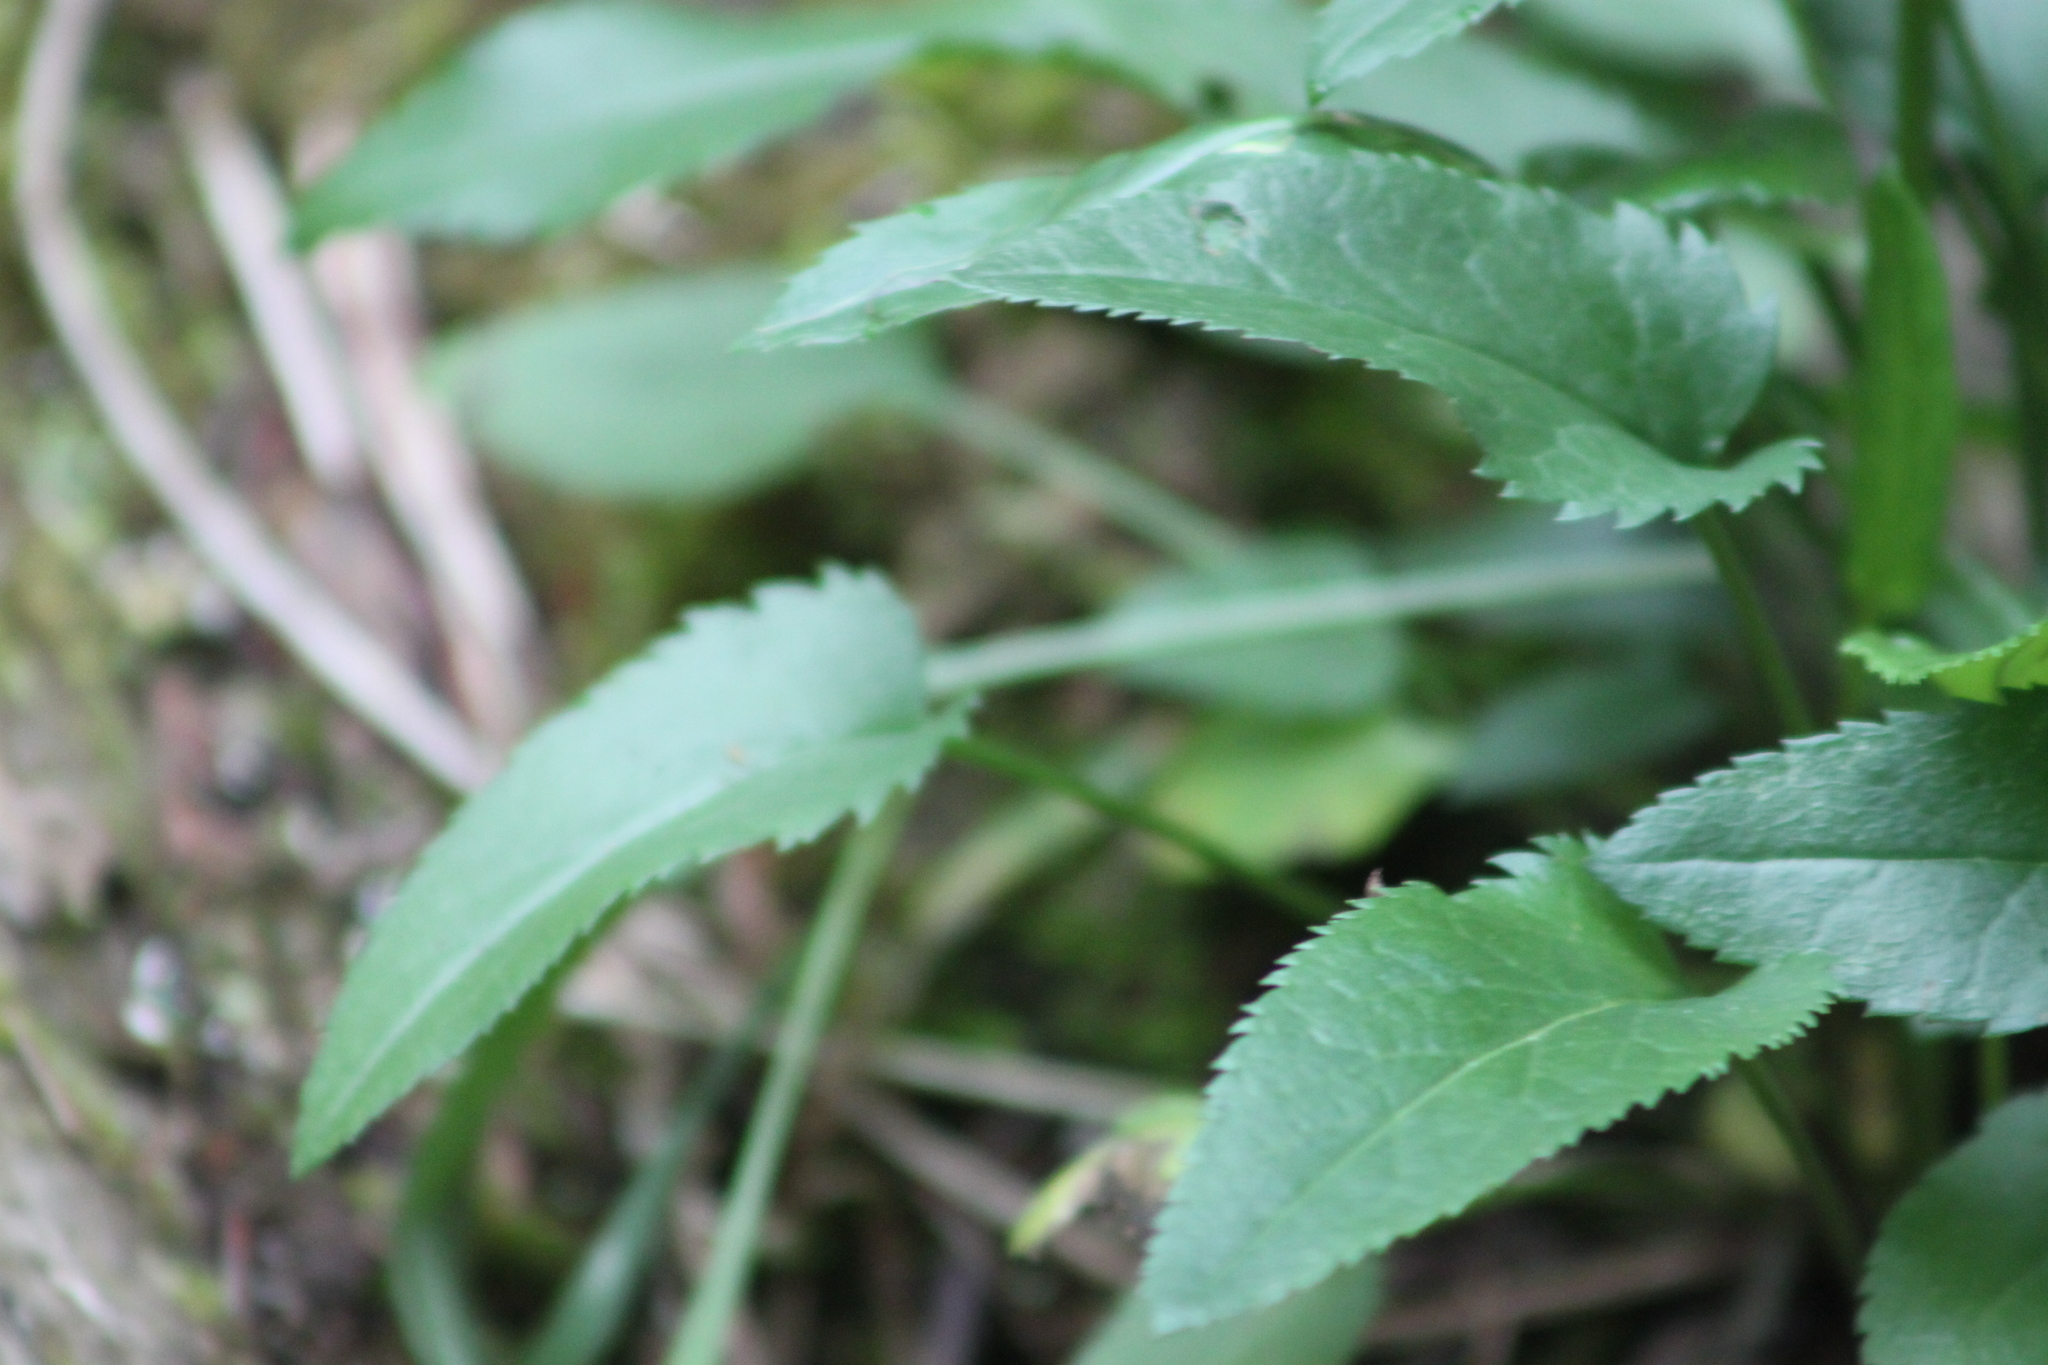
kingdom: Plantae
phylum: Tracheophyta
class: Magnoliopsida
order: Asterales
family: Asteraceae
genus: Packera
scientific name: Packera schweinitziana
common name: Schweinitz's ragwort
